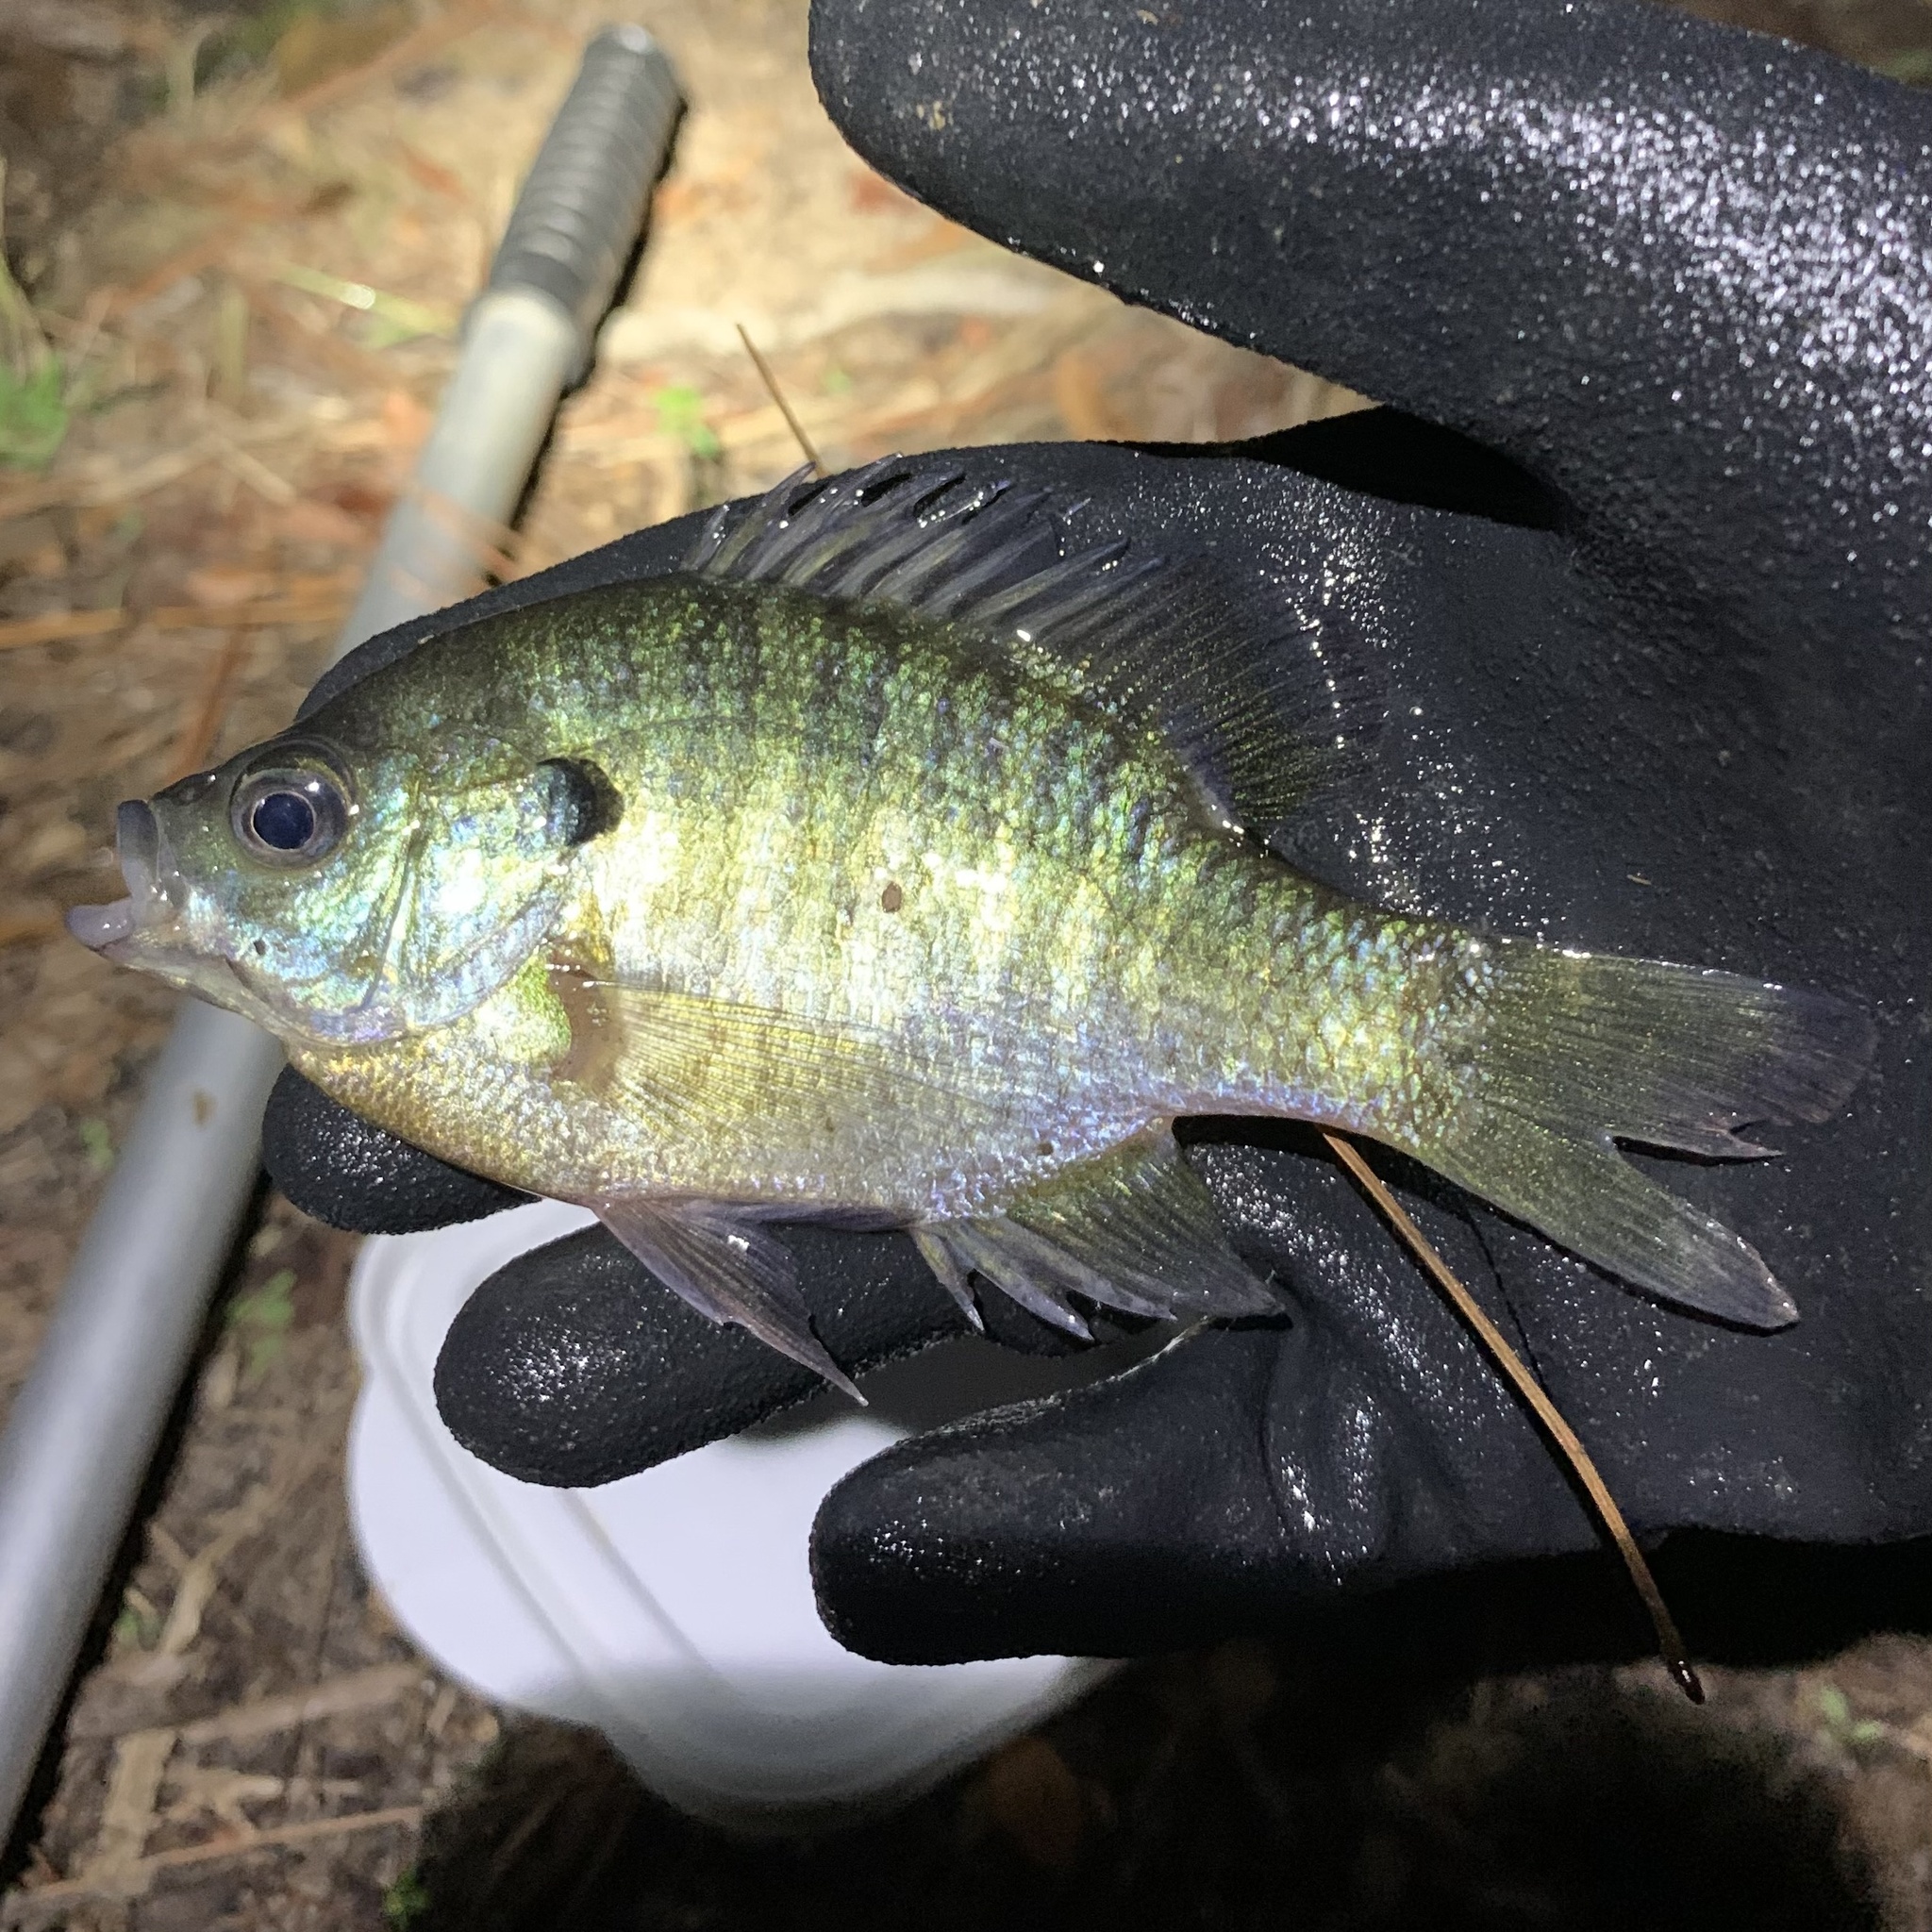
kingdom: Animalia
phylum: Chordata
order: Perciformes
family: Centrarchidae
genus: Lepomis
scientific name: Lepomis macrochirus
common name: Bluegill
